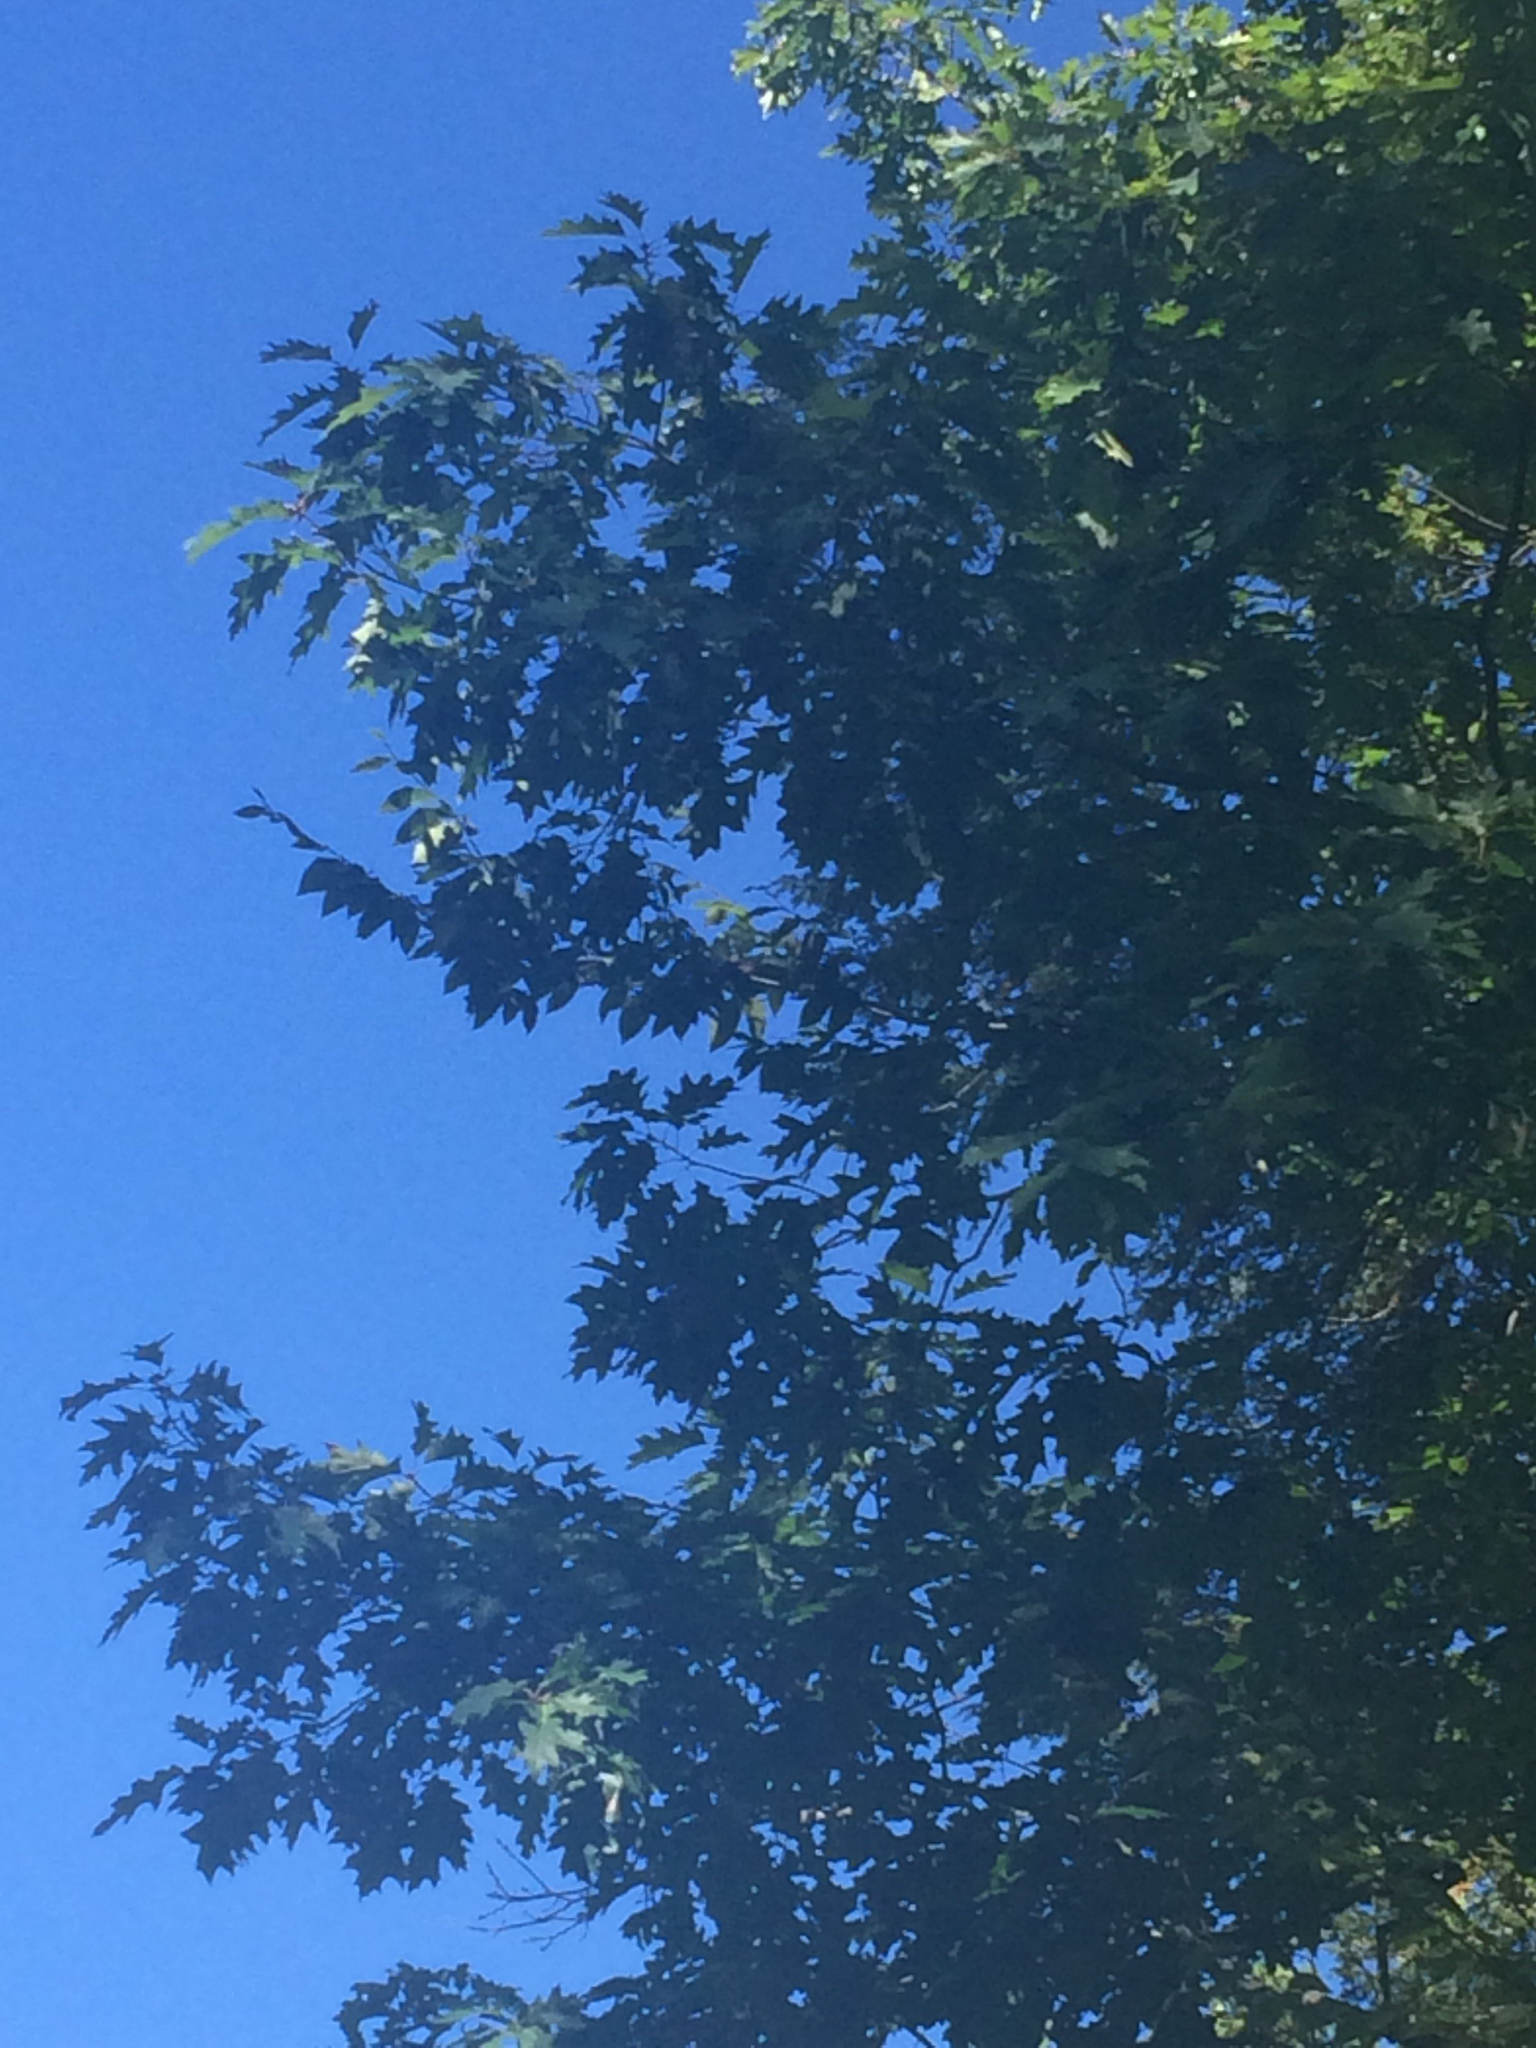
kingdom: Plantae
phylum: Tracheophyta
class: Magnoliopsida
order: Fagales
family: Fagaceae
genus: Quercus
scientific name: Quercus rubra
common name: Red oak
